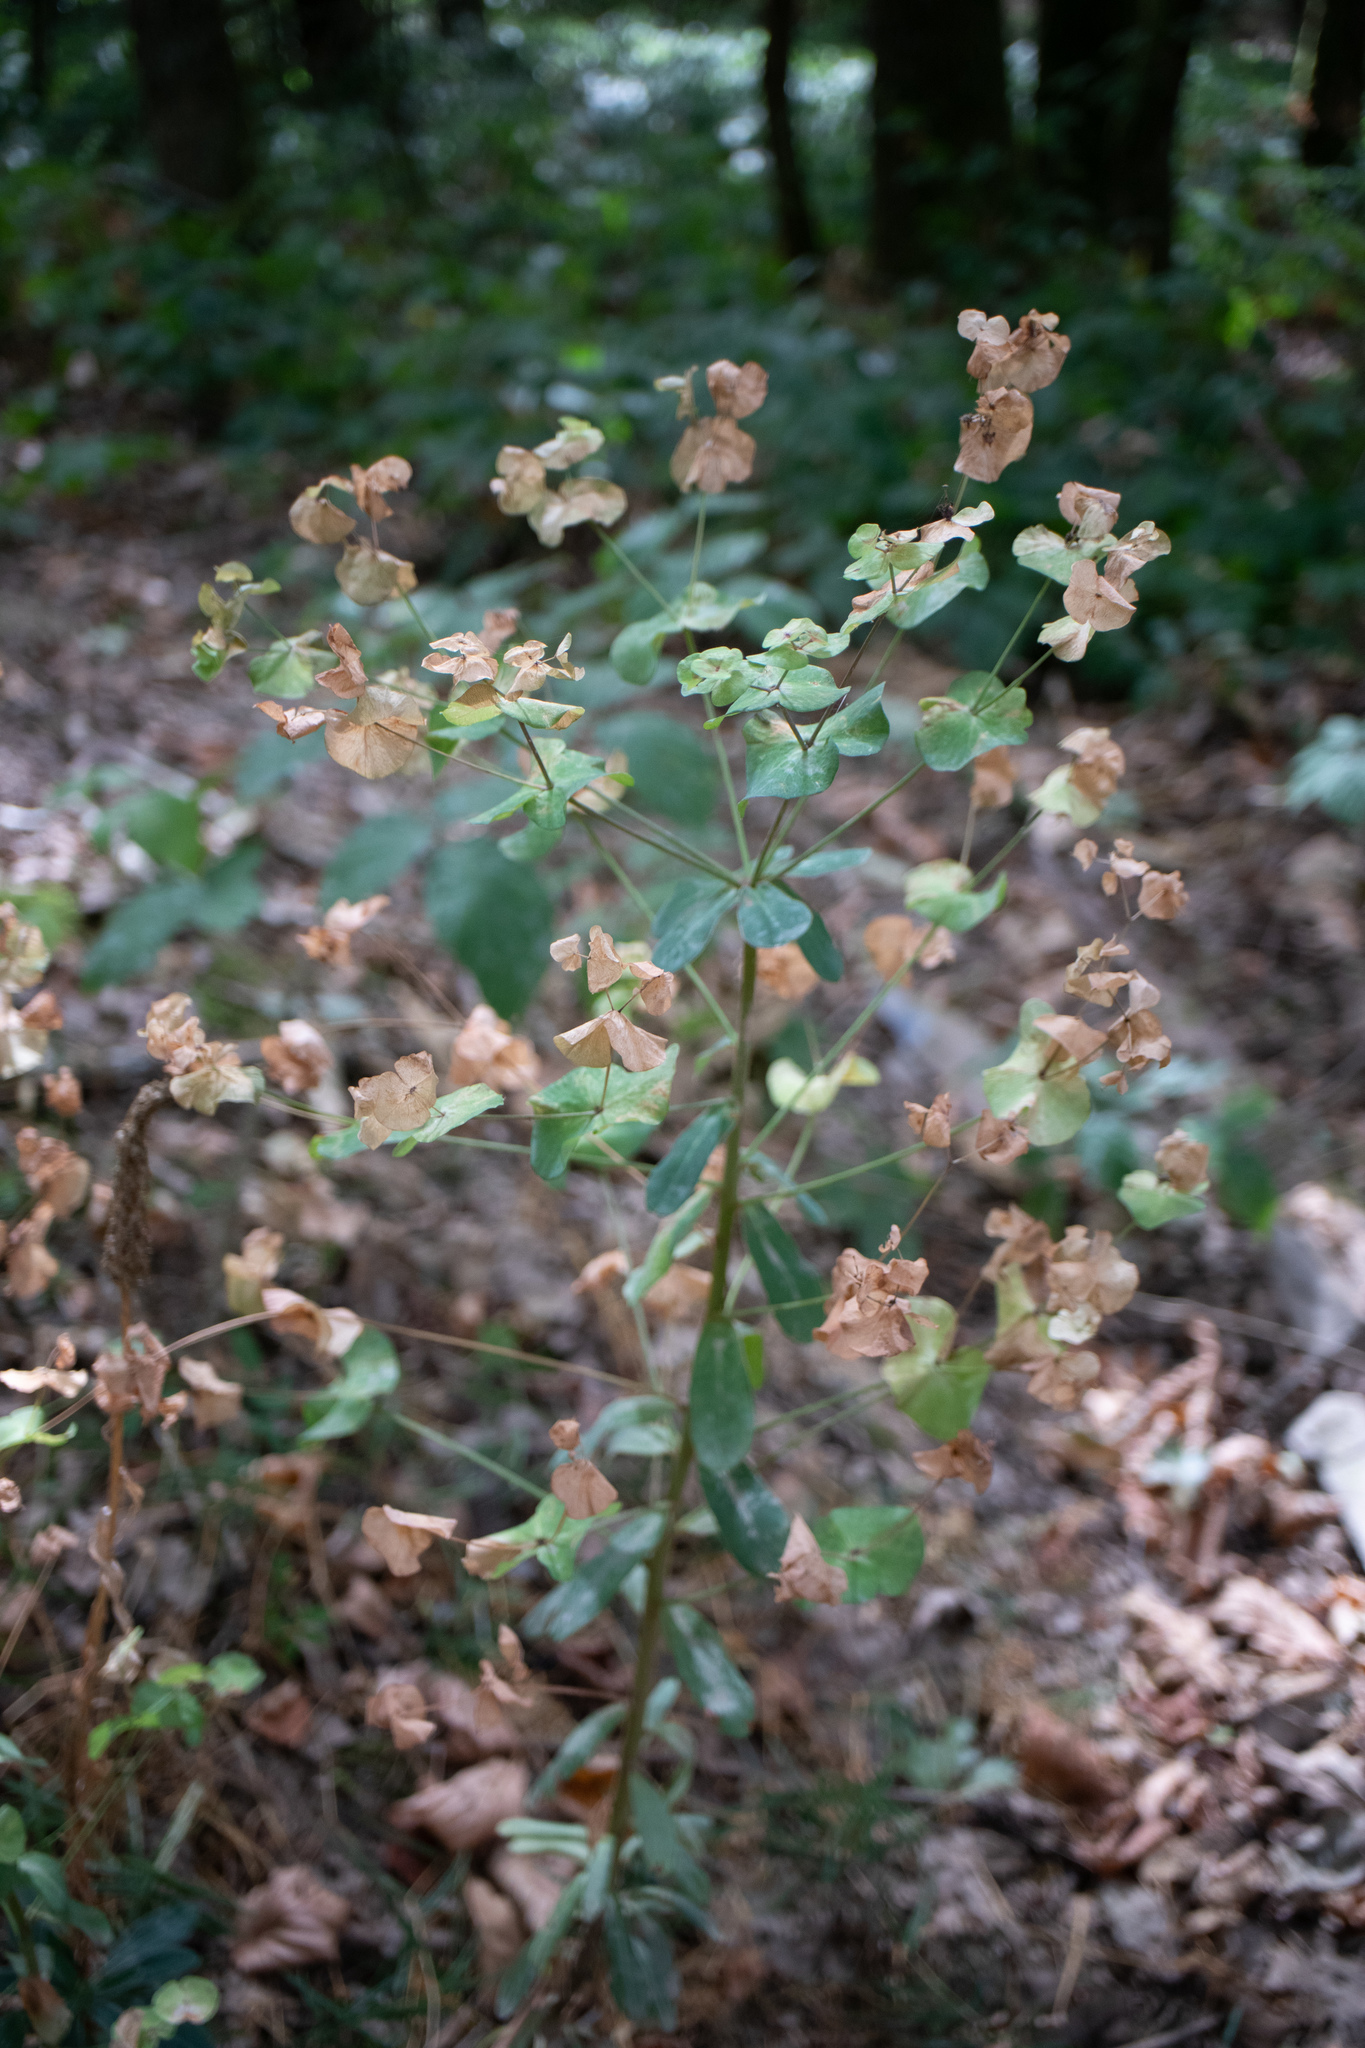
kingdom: Plantae
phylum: Tracheophyta
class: Magnoliopsida
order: Malpighiales
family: Euphorbiaceae
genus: Euphorbia
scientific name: Euphorbia amygdaloides
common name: Wood spurge
